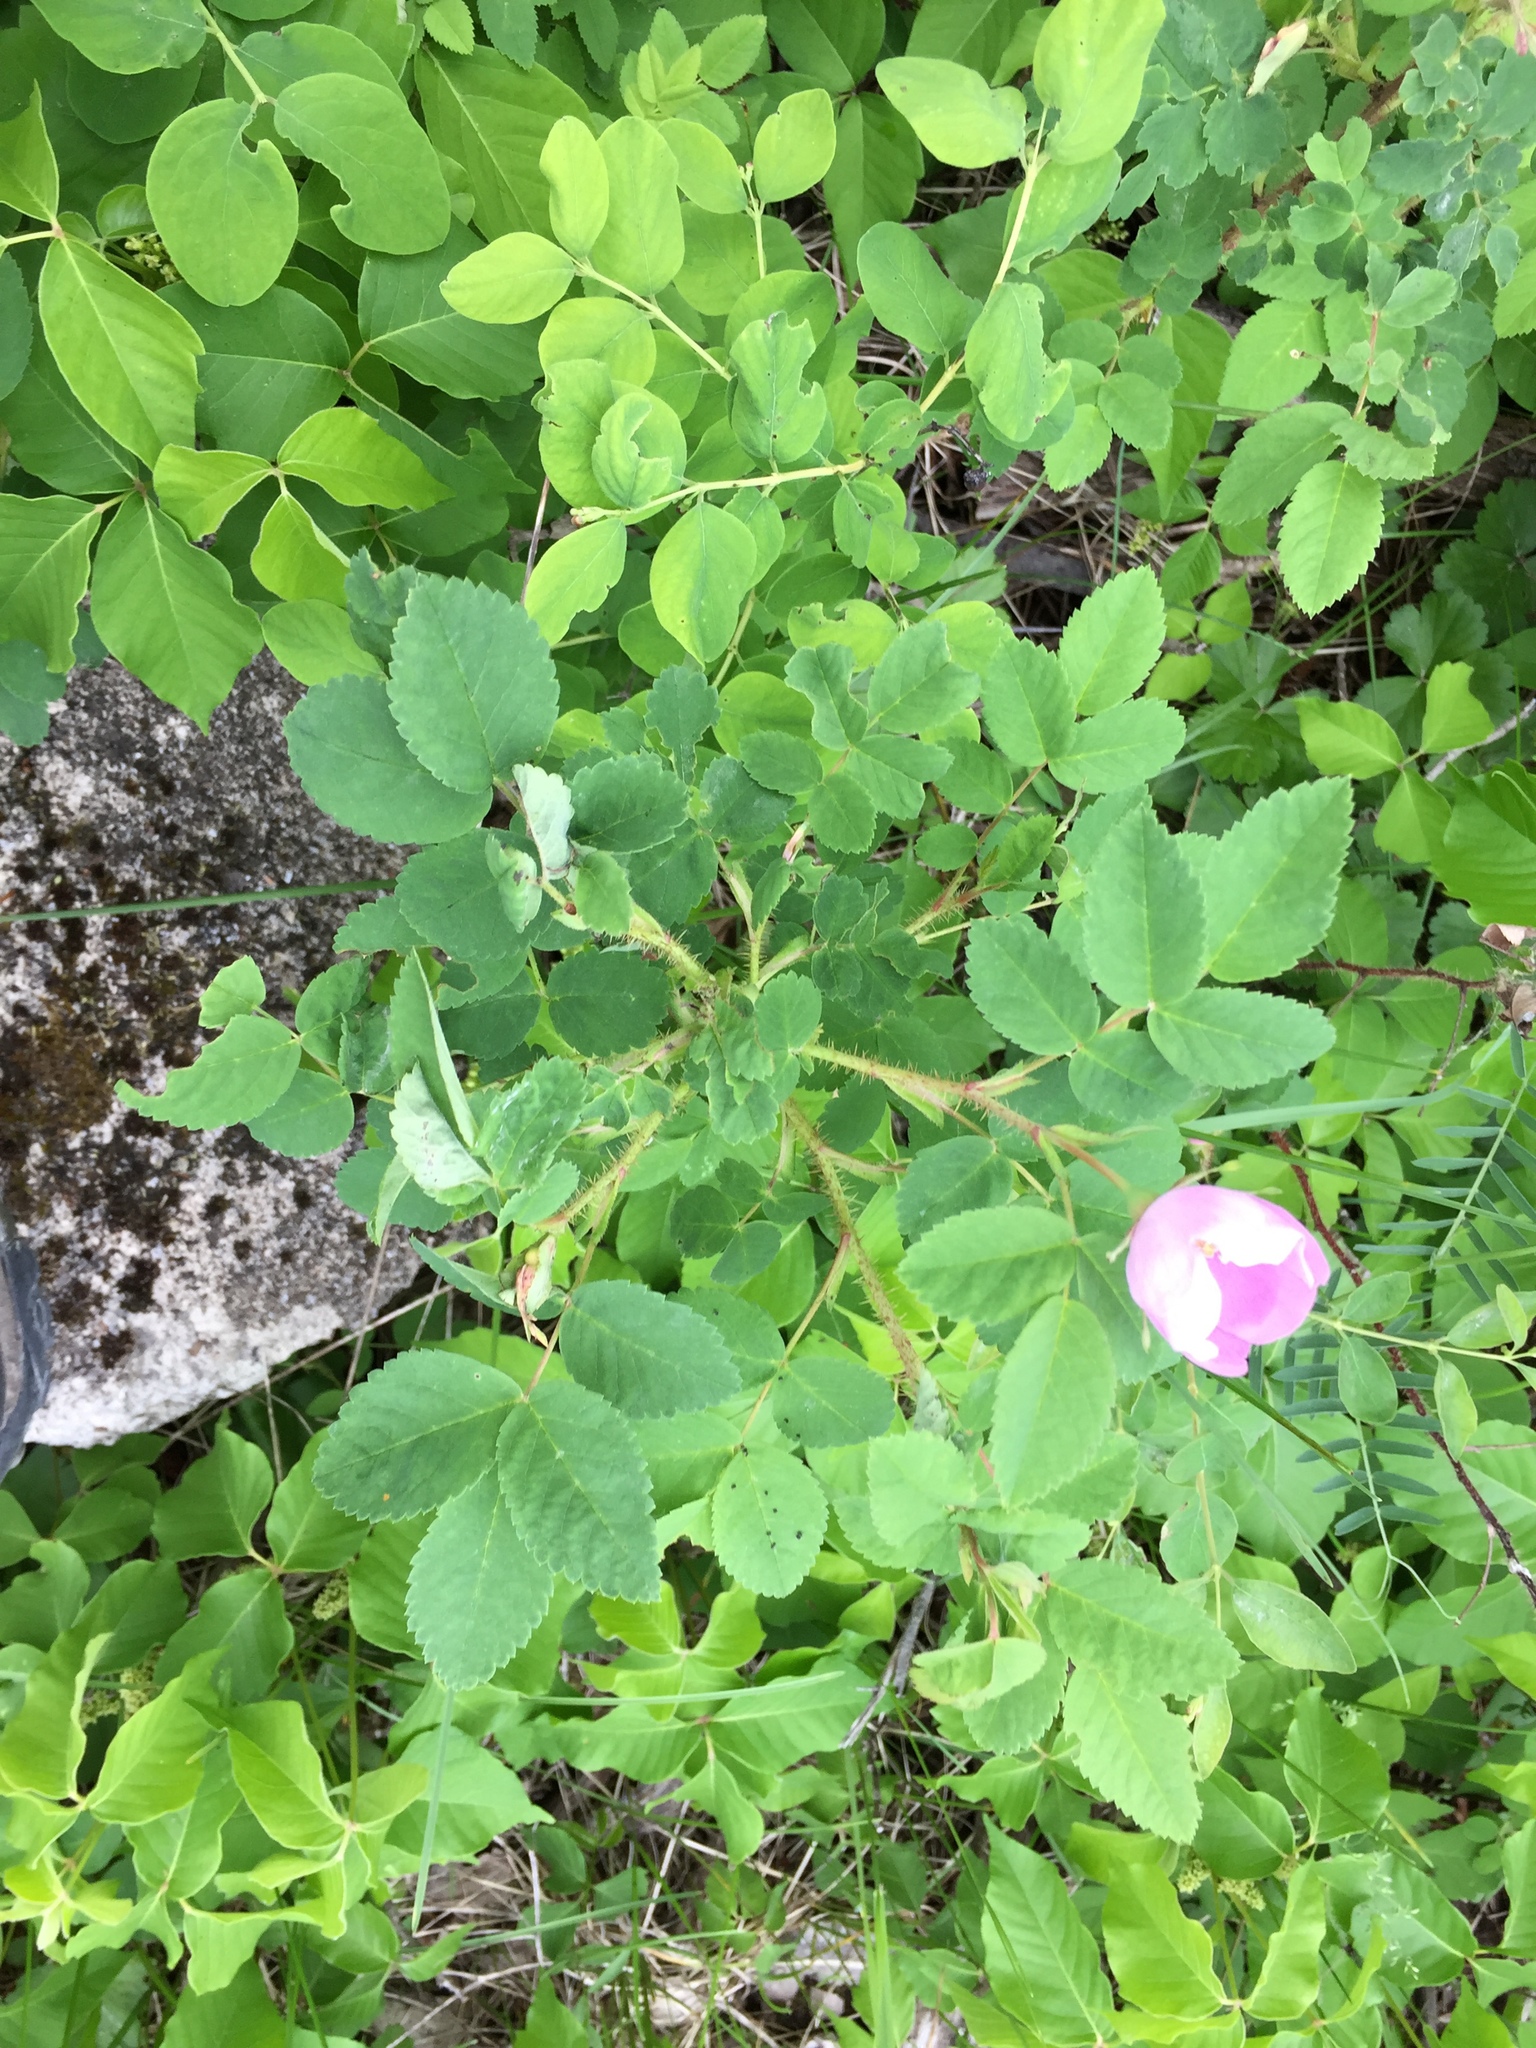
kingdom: Plantae
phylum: Tracheophyta
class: Magnoliopsida
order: Rosales
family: Rosaceae
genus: Rosa
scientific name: Rosa acicularis
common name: Prickly rose
